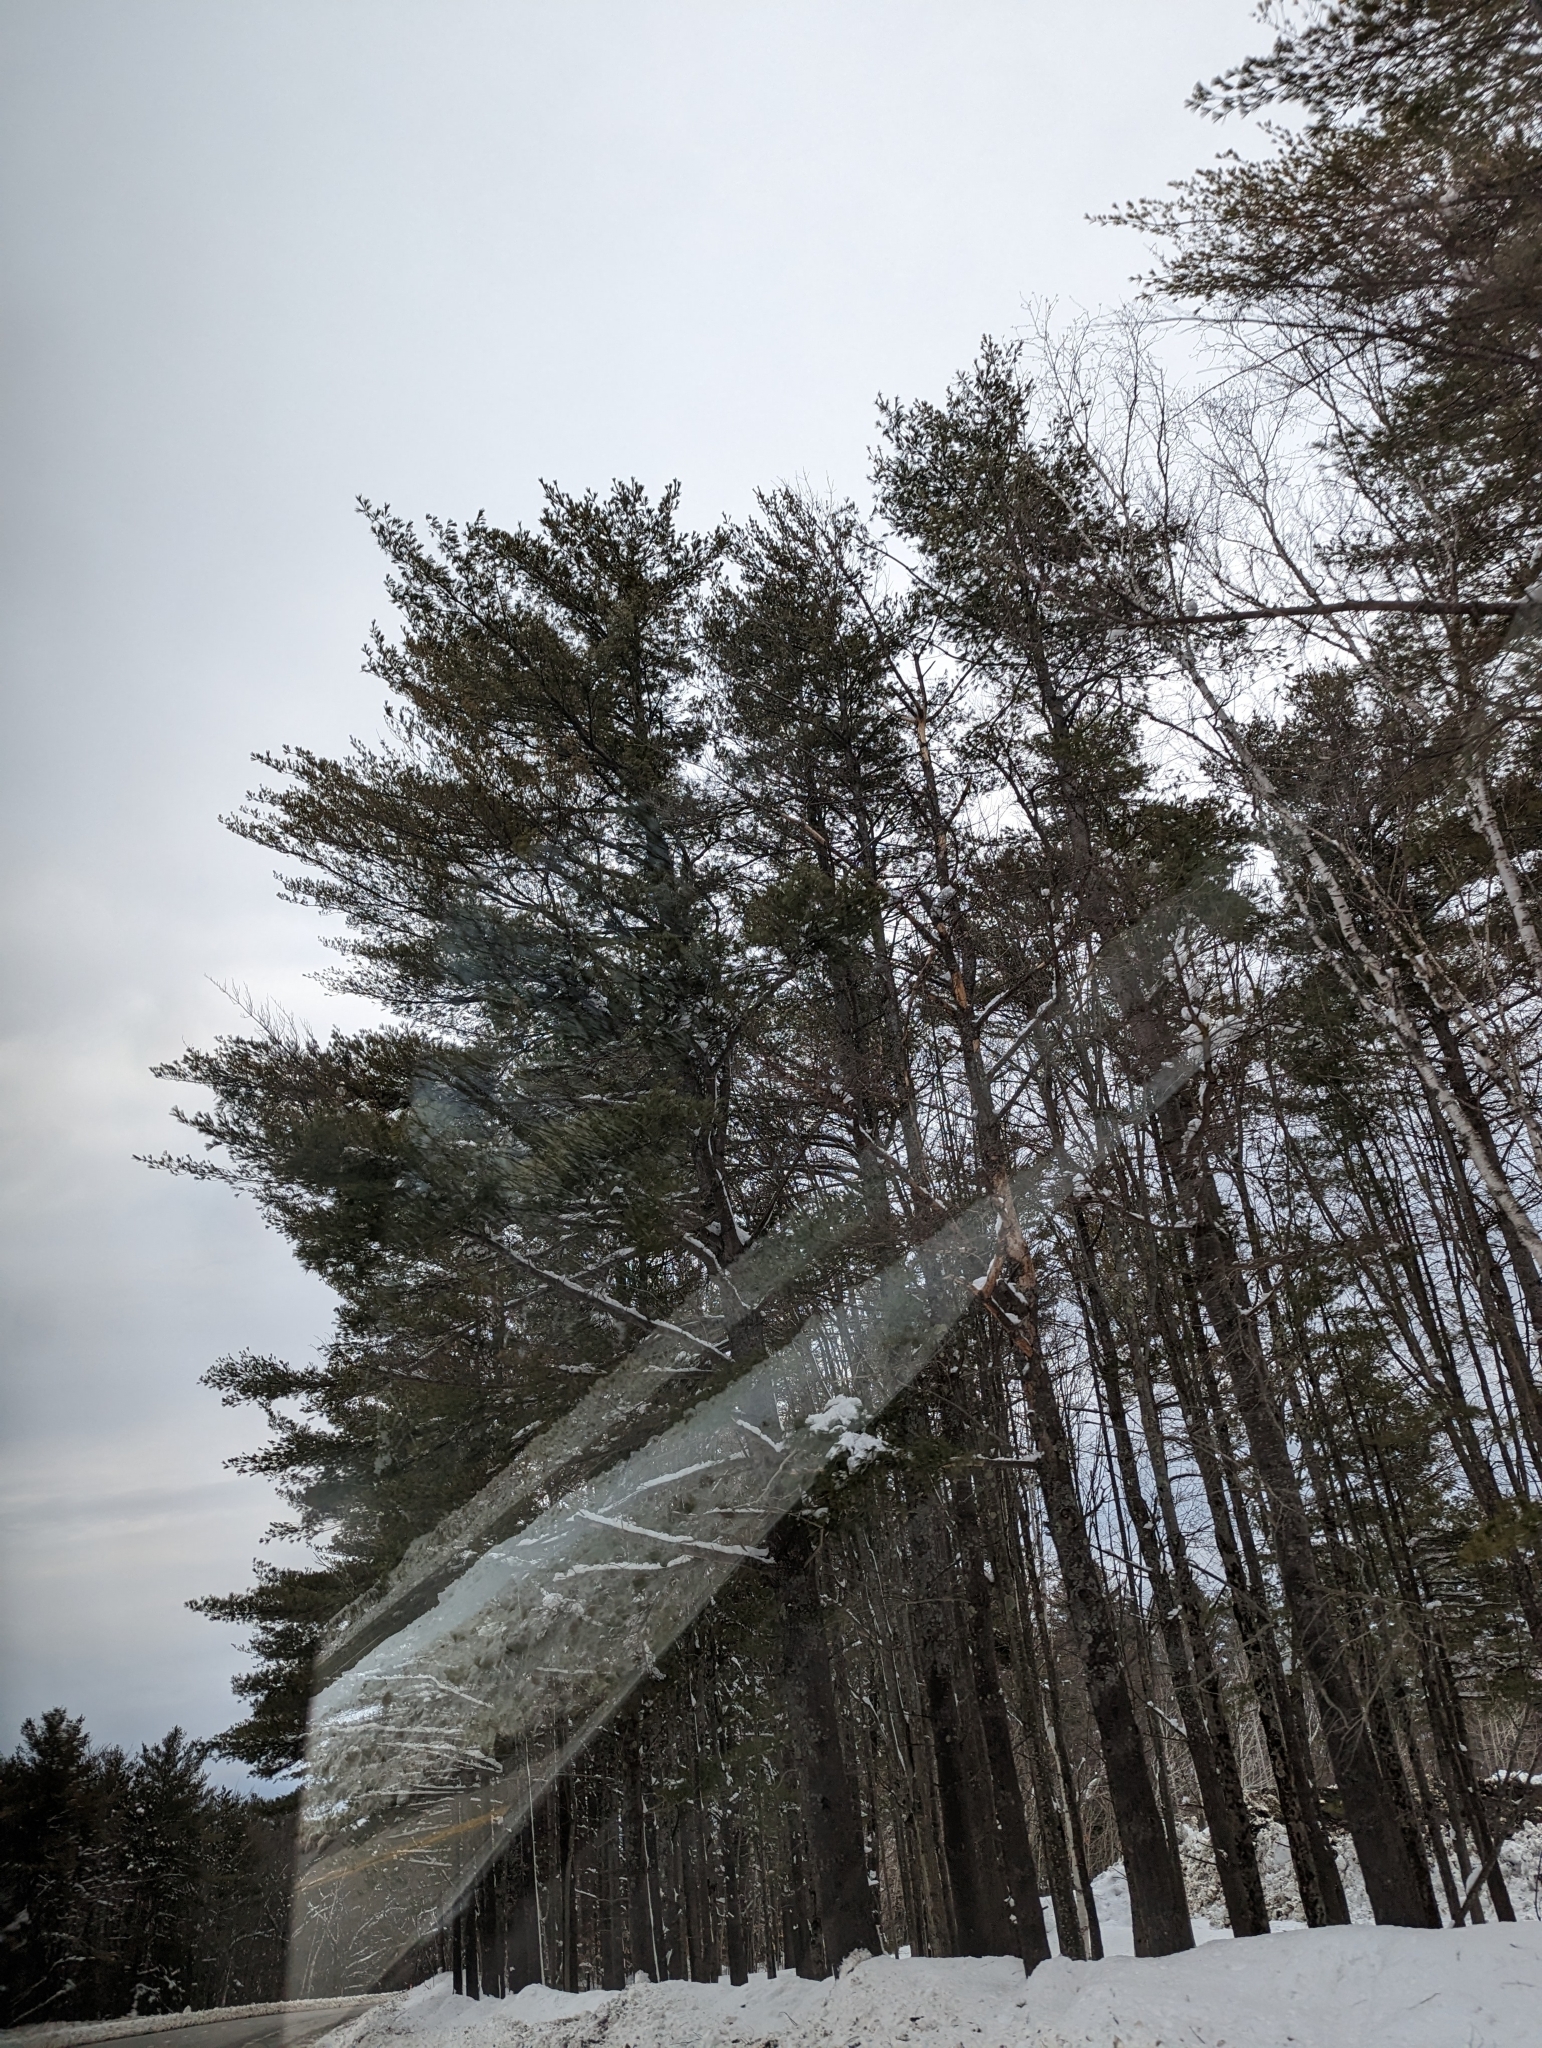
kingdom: Plantae
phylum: Tracheophyta
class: Pinopsida
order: Pinales
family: Pinaceae
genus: Pinus
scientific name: Pinus strobus
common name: Weymouth pine
